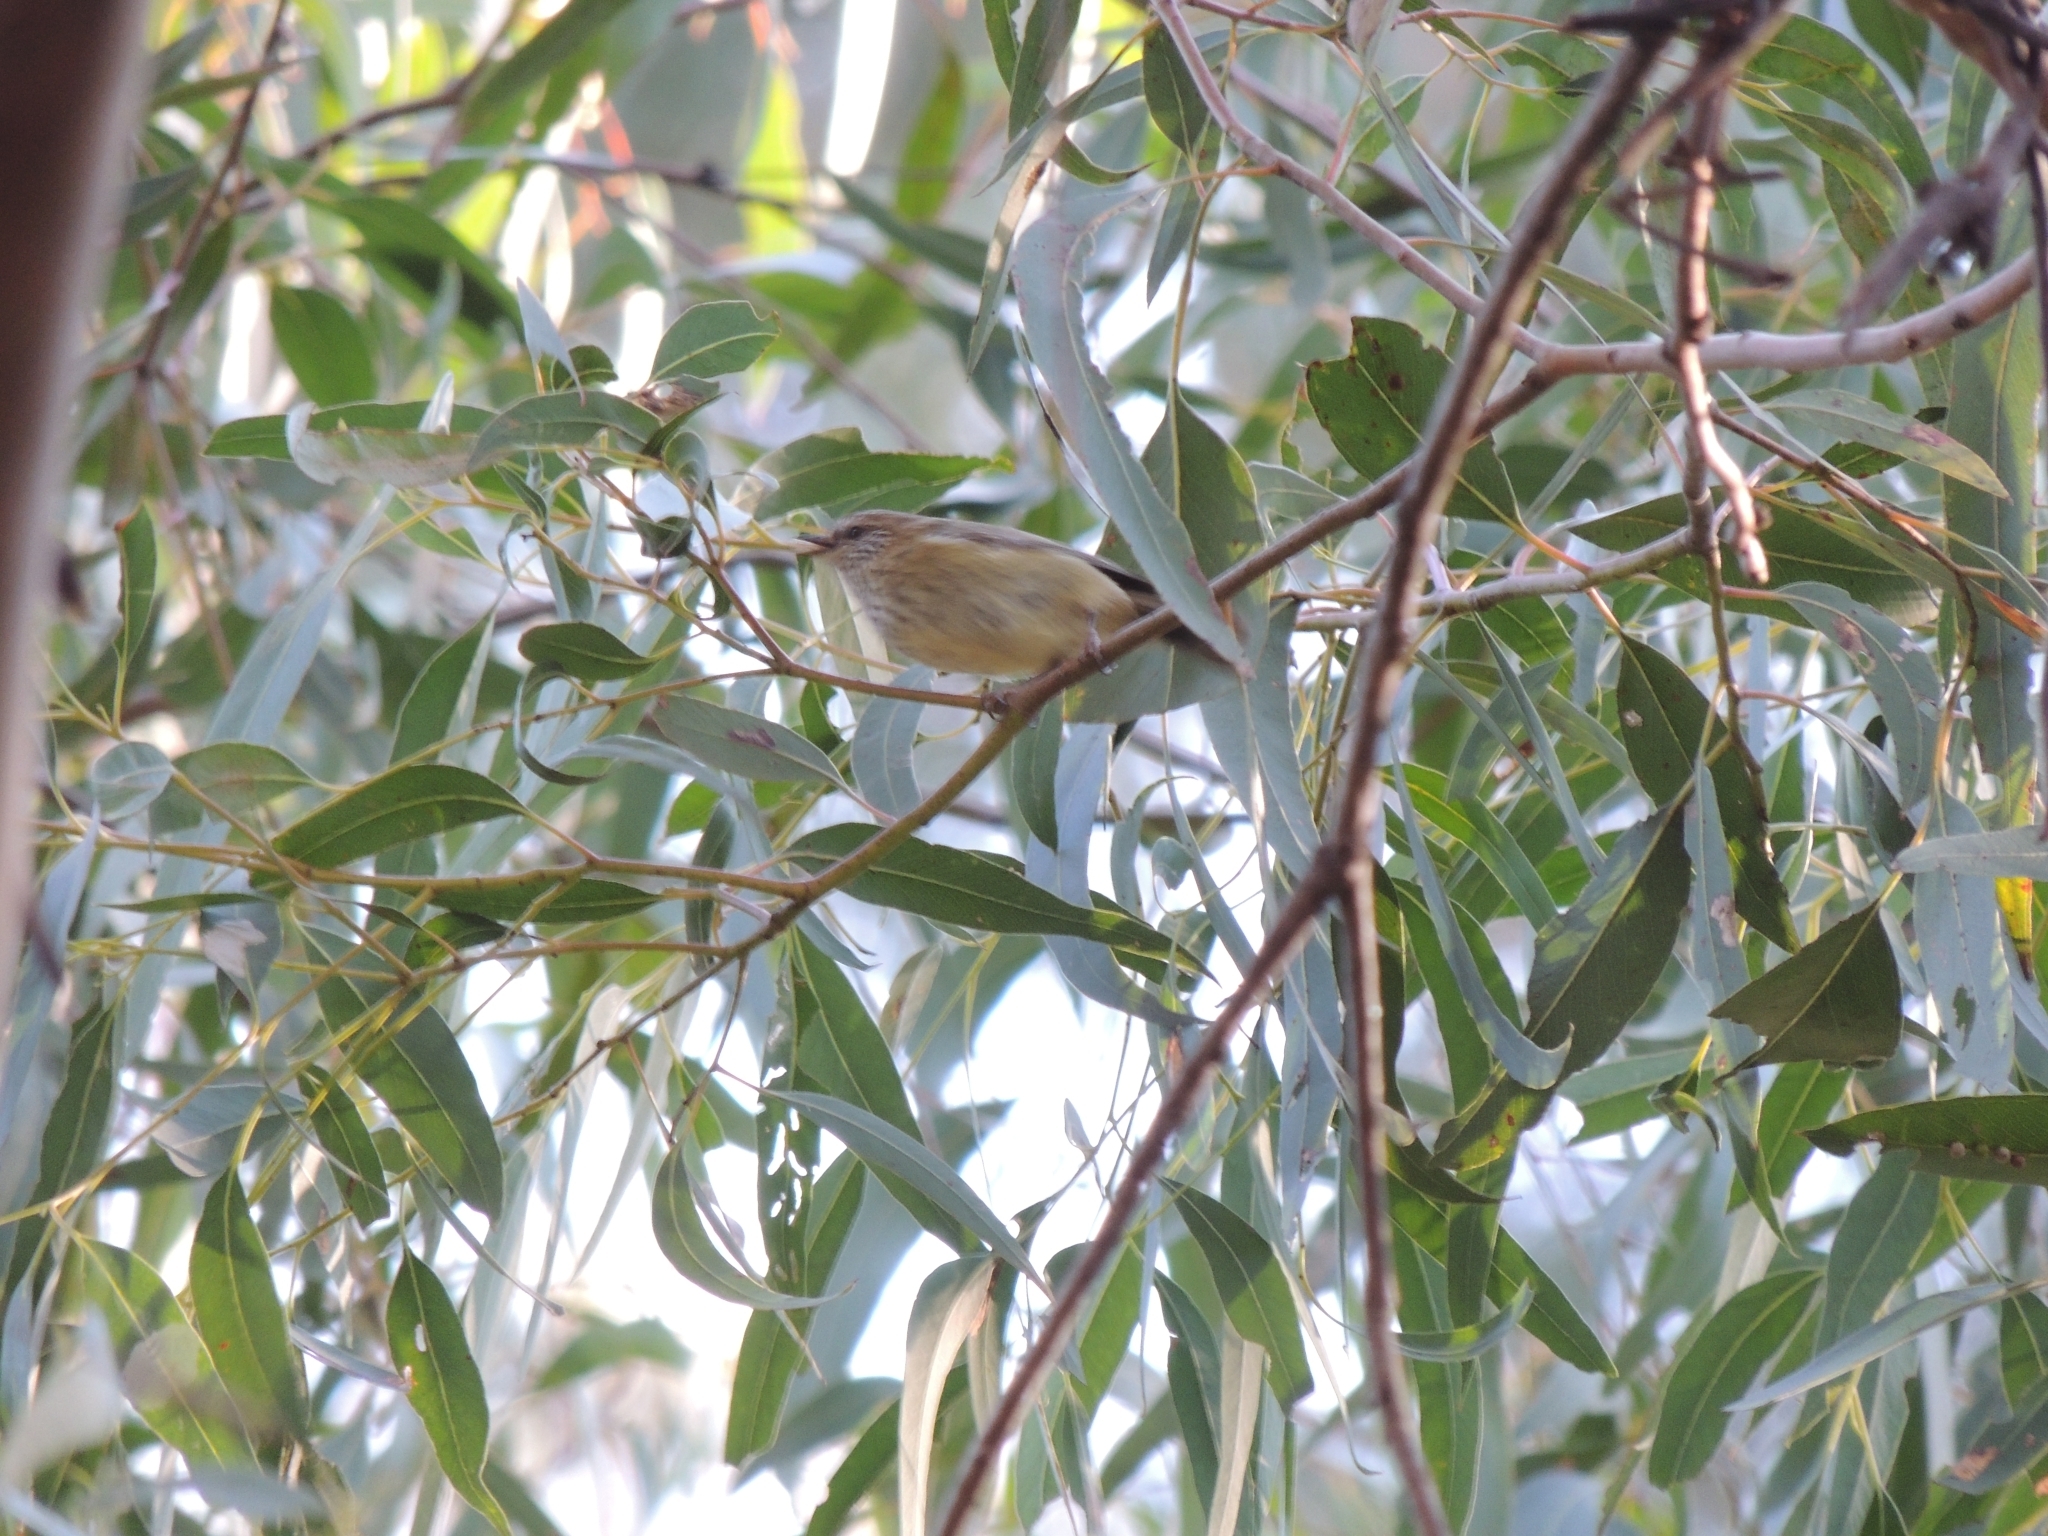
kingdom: Animalia
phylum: Chordata
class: Aves
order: Passeriformes
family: Acanthizidae
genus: Acanthiza
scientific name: Acanthiza lineata
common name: Striated thornbill
